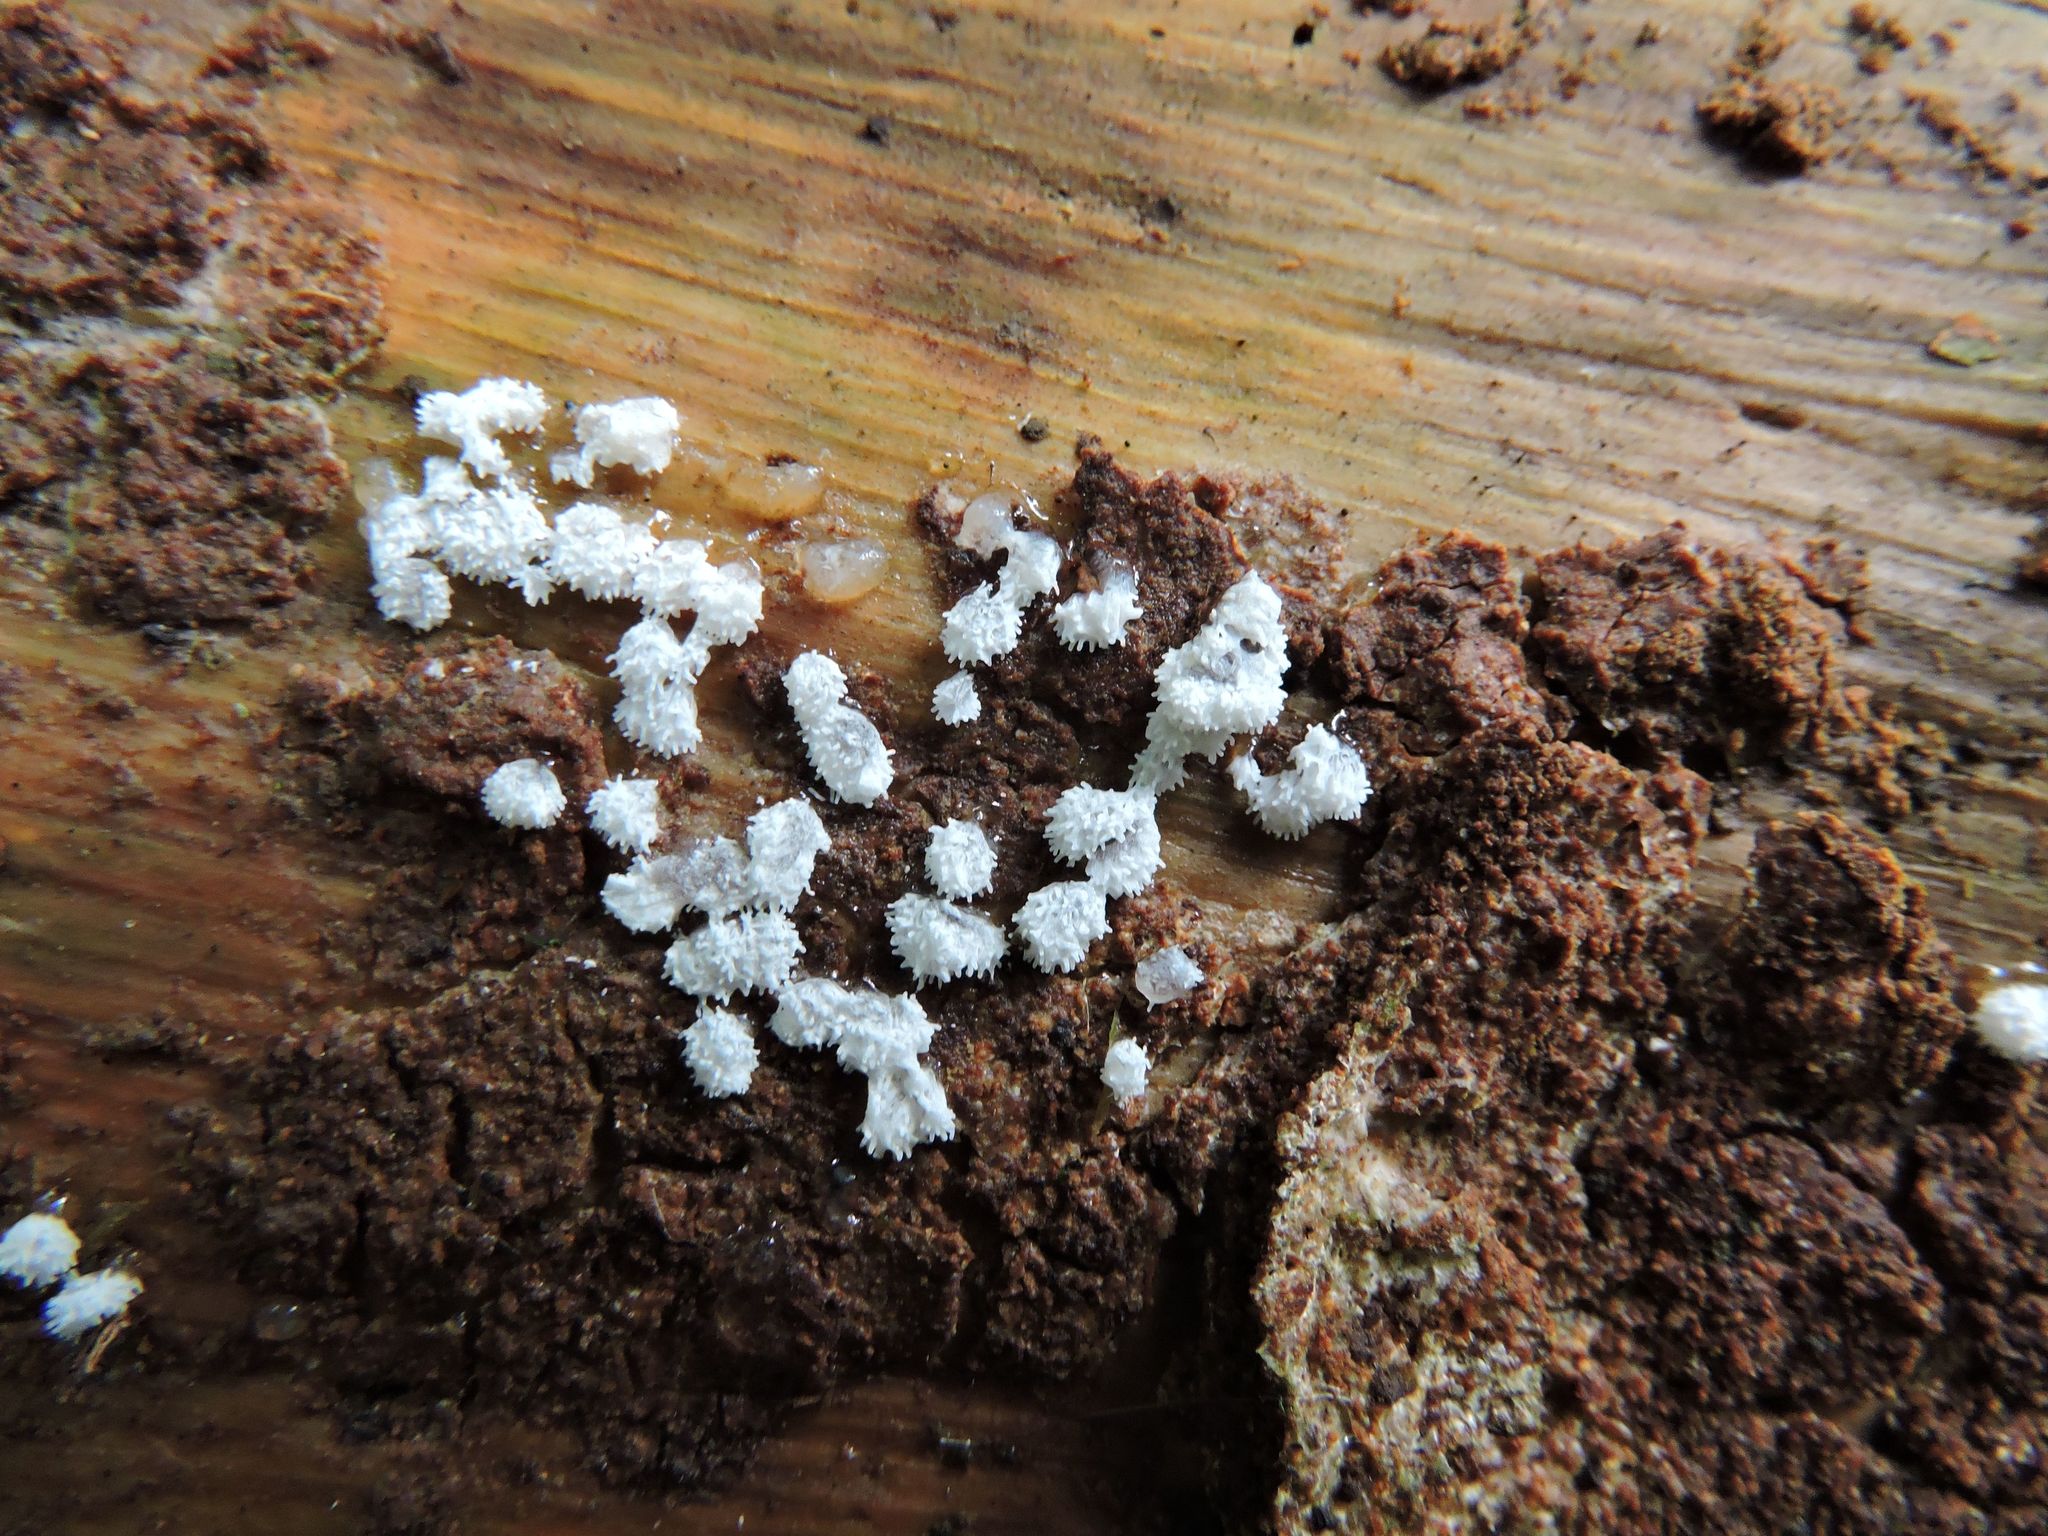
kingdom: Protozoa
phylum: Mycetozoa
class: Protosteliomycetes
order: Ceratiomyxales
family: Ceratiomyxaceae
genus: Ceratiomyxa
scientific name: Ceratiomyxa fruticulosa
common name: Honeycomb coral slime mold
